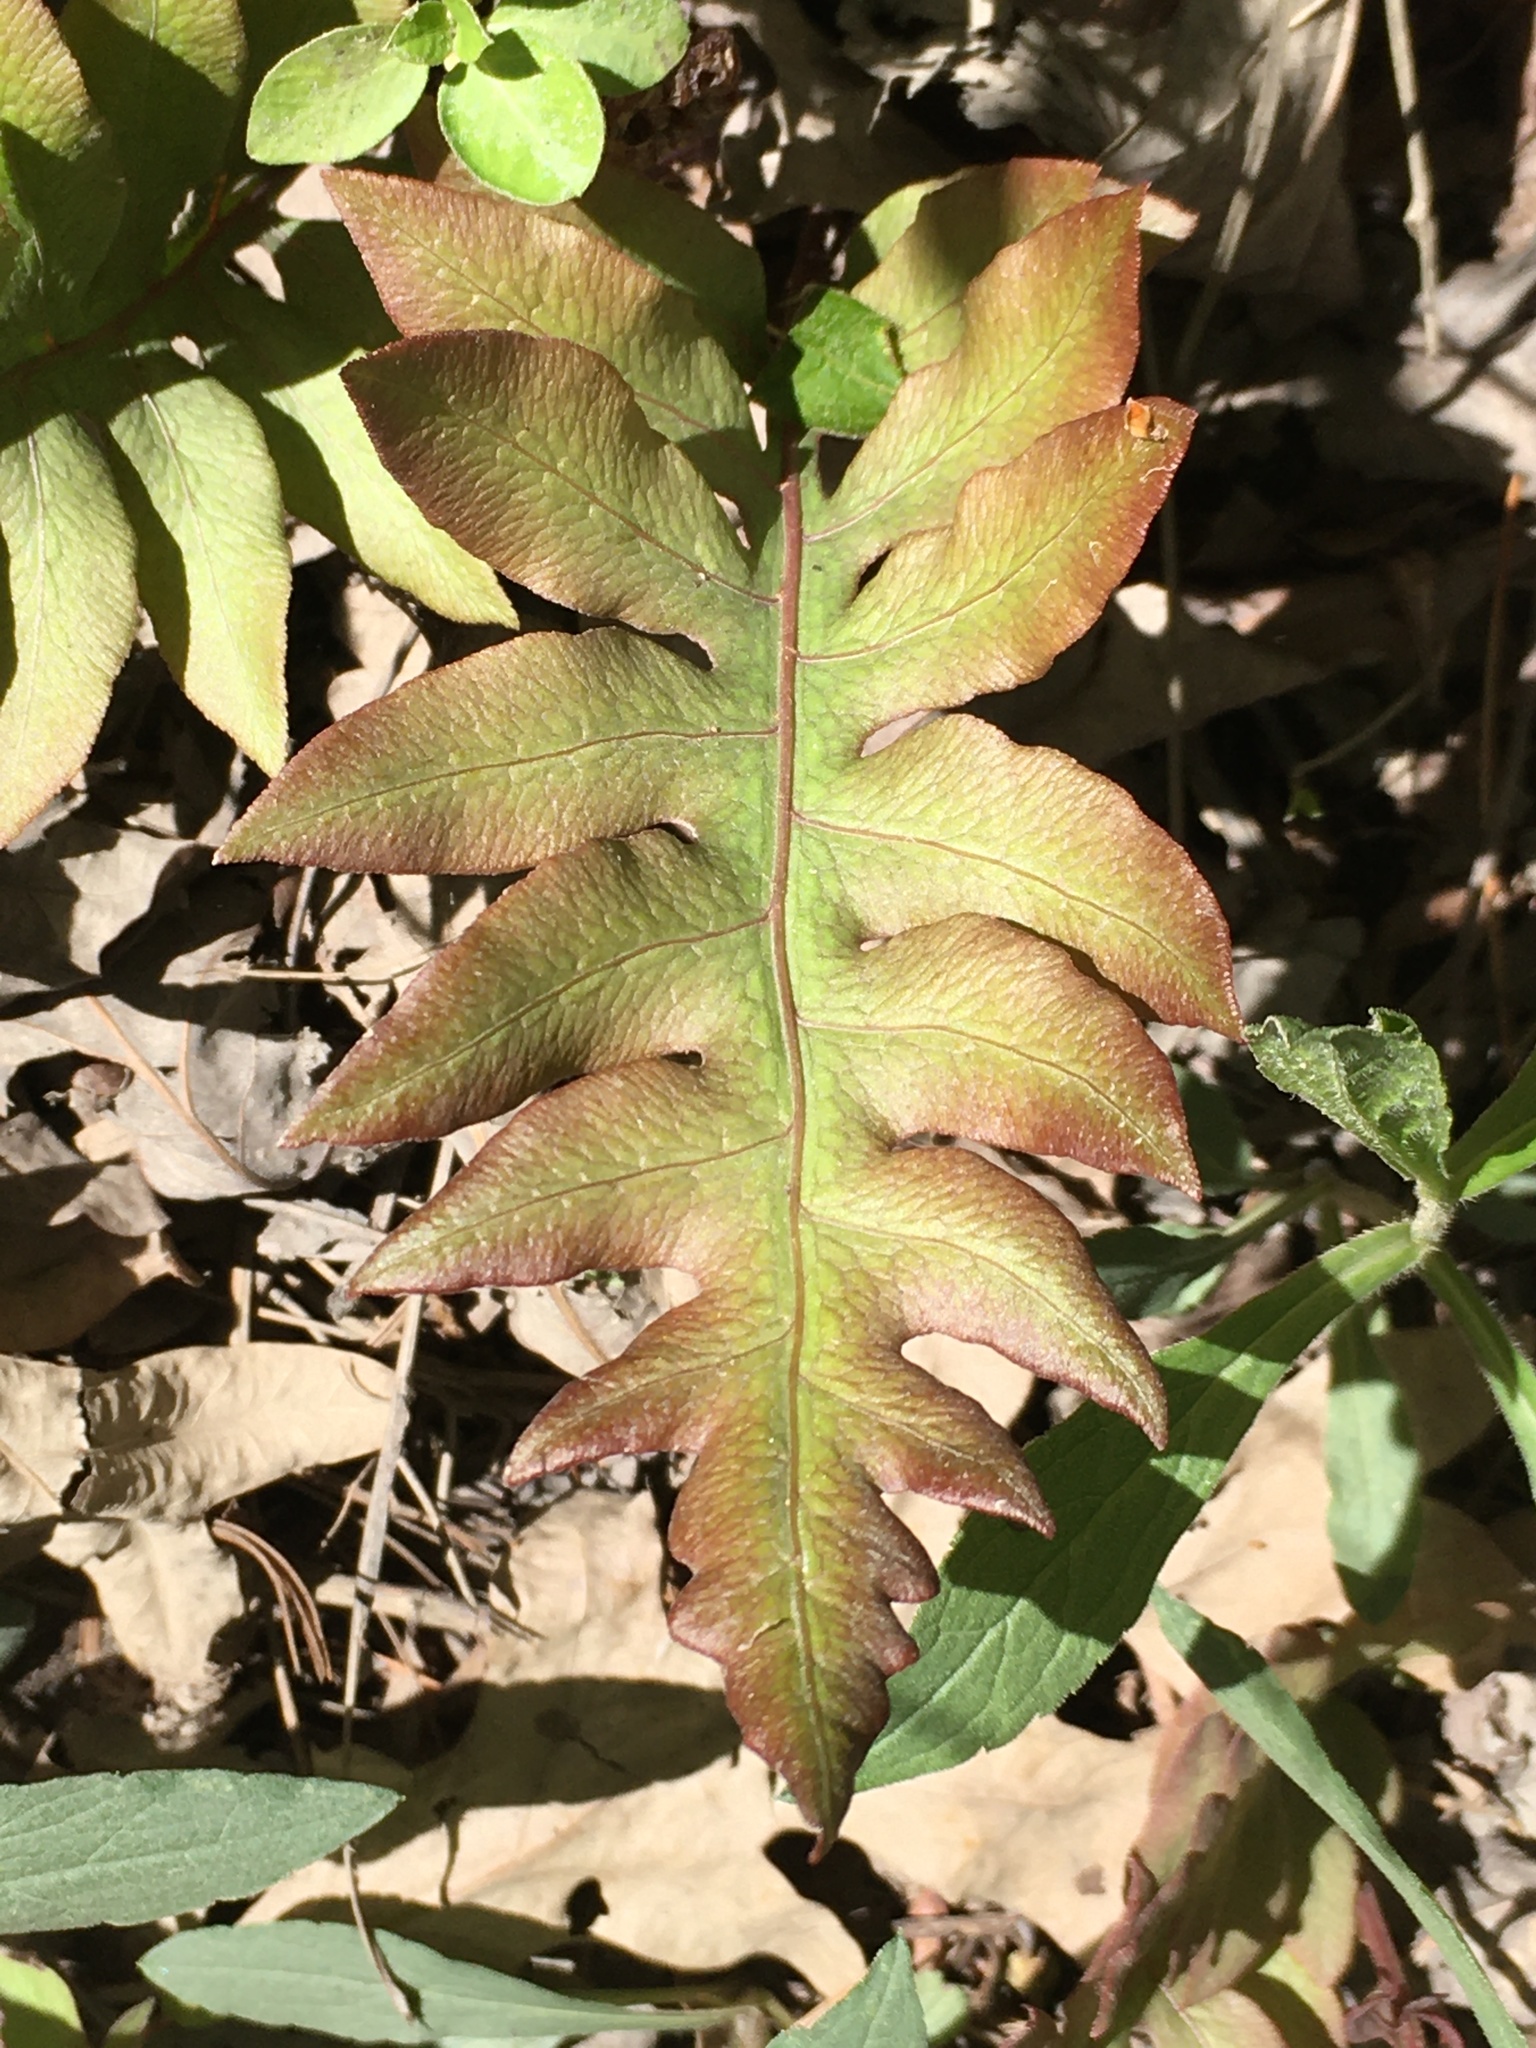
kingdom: Plantae
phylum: Tracheophyta
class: Polypodiopsida
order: Polypodiales
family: Blechnaceae
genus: Lorinseria
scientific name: Lorinseria areolata
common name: Dwarf chain fern
